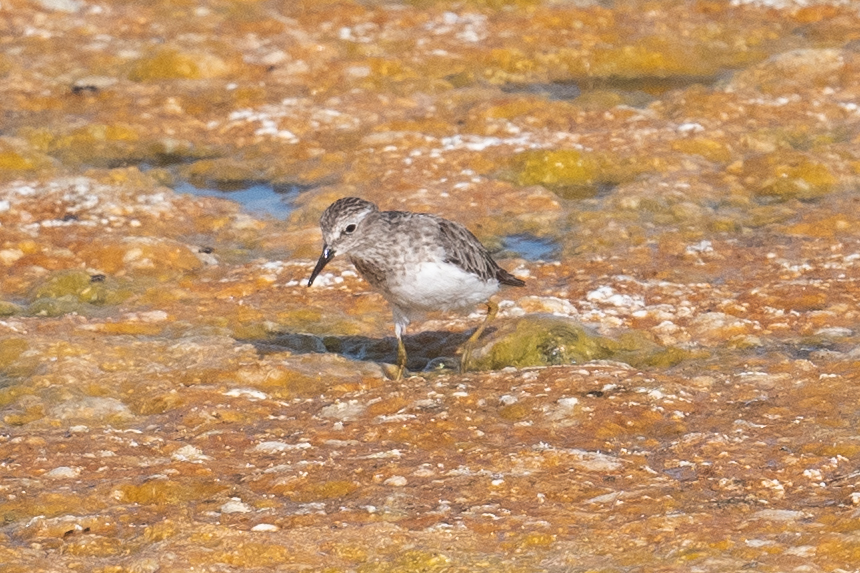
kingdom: Animalia
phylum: Chordata
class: Aves
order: Charadriiformes
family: Scolopacidae
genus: Calidris
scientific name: Calidris minutilla
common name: Least sandpiper
